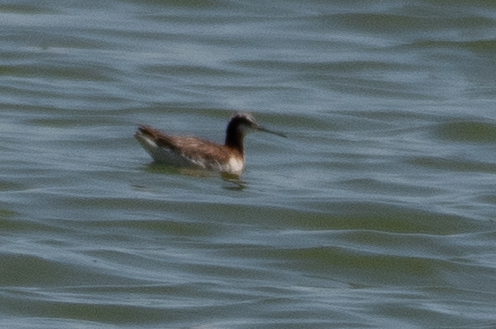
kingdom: Animalia
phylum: Chordata
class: Aves
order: Charadriiformes
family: Scolopacidae
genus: Phalaropus
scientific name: Phalaropus tricolor
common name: Wilson's phalarope
